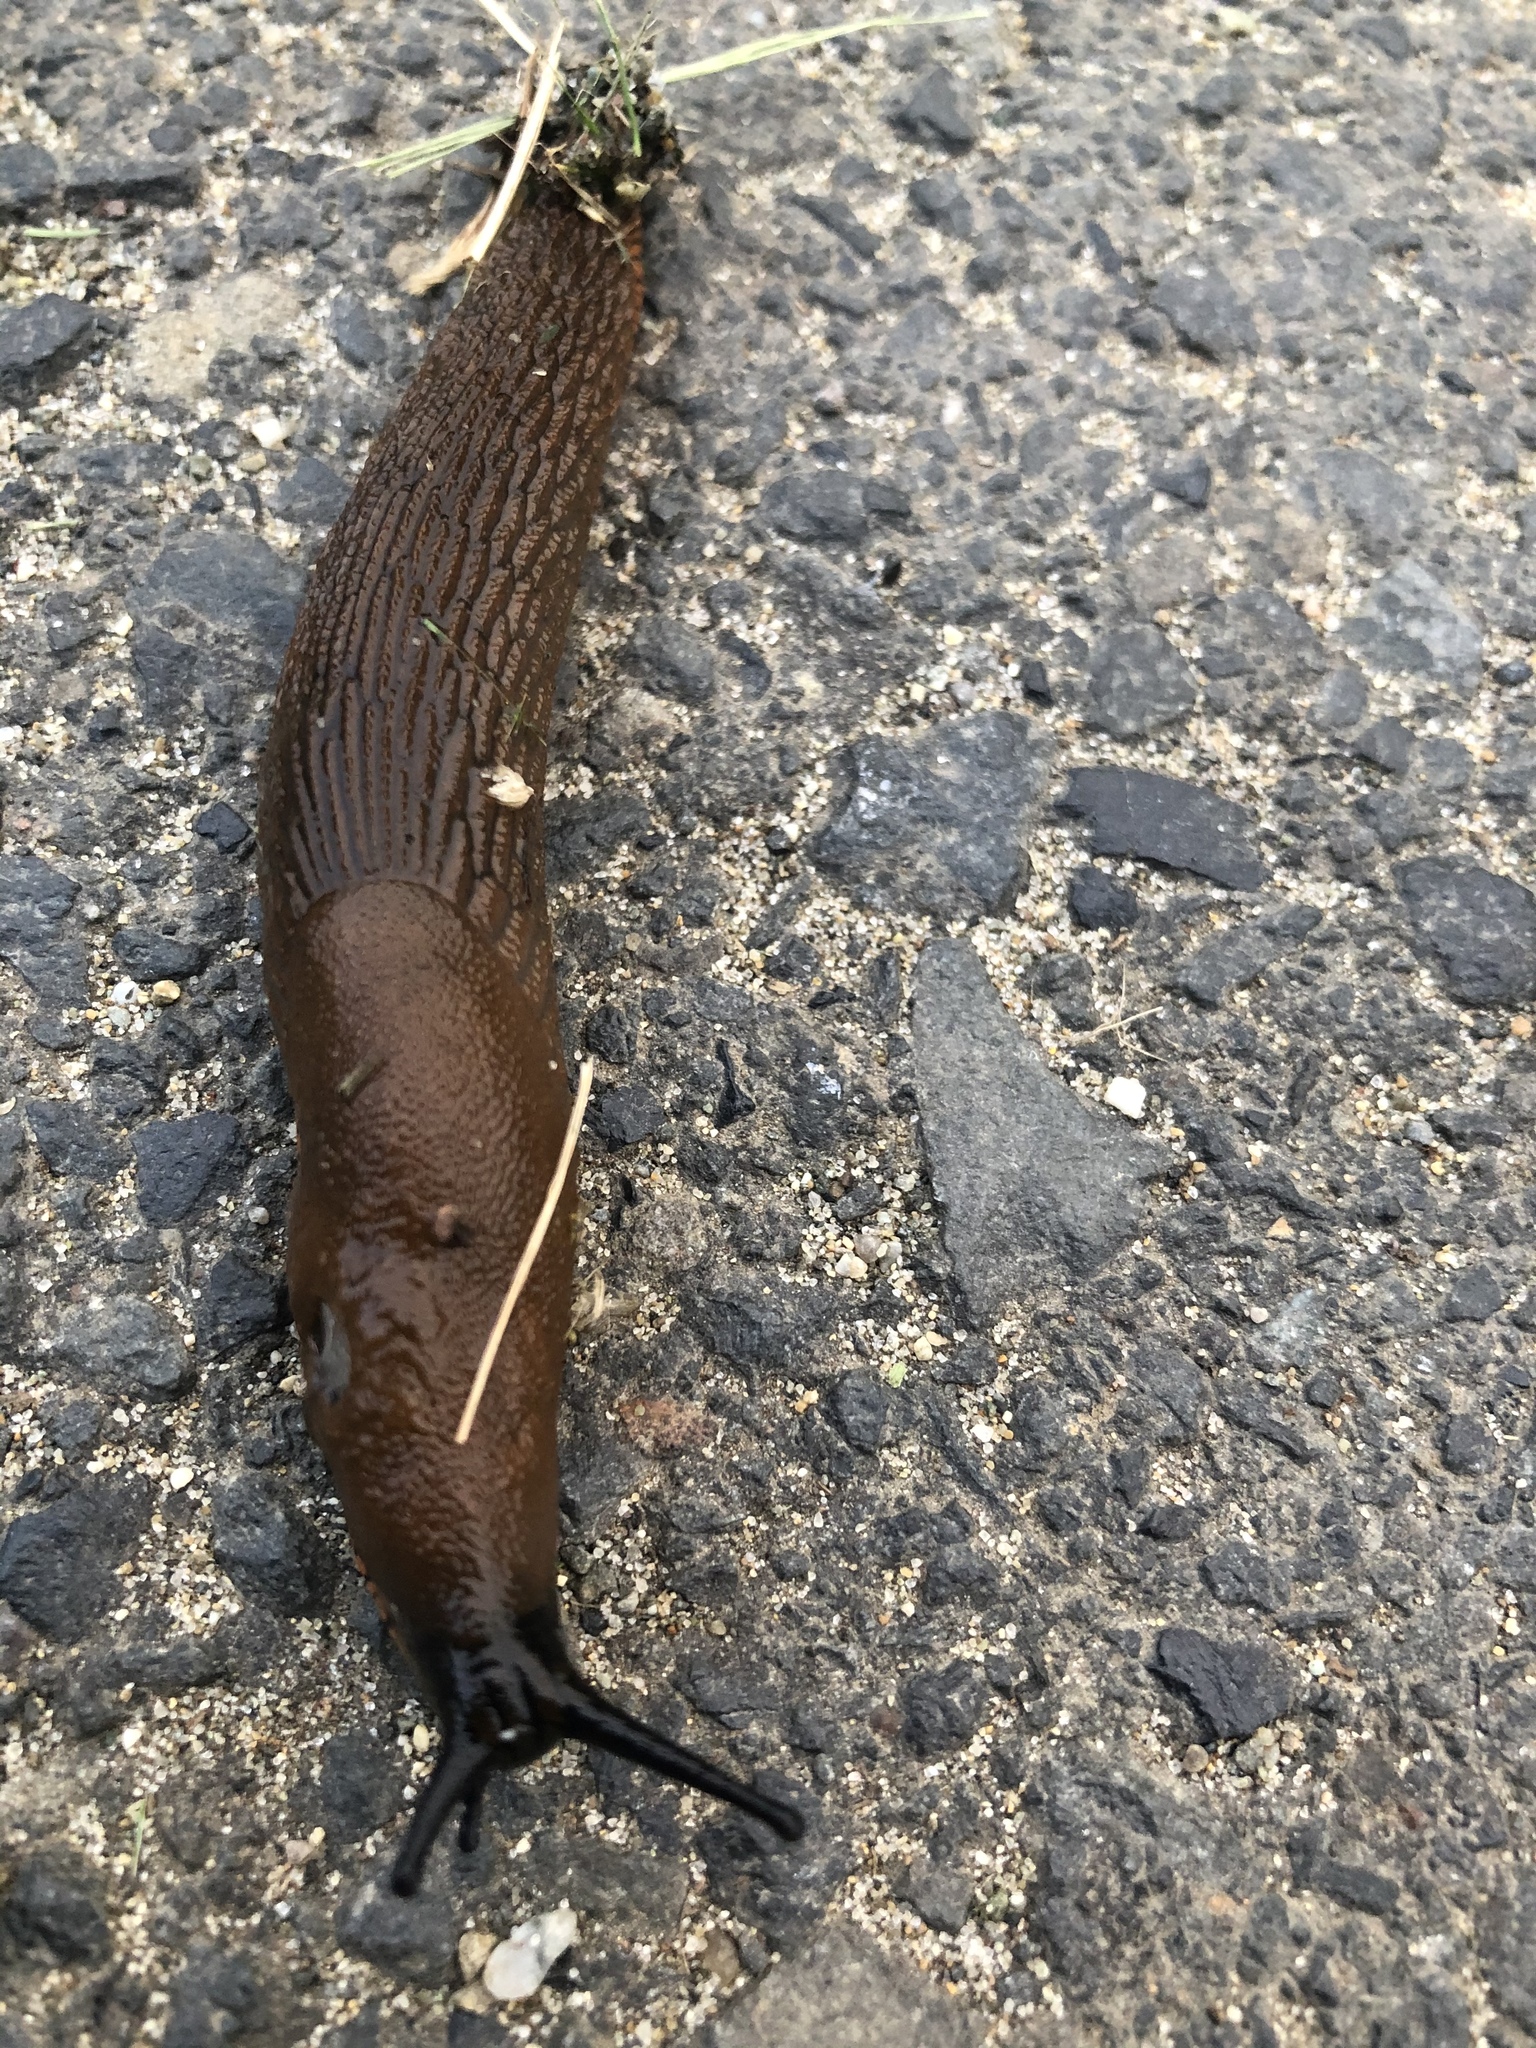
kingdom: Animalia
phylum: Mollusca
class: Gastropoda
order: Stylommatophora
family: Arionidae
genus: Arion
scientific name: Arion
